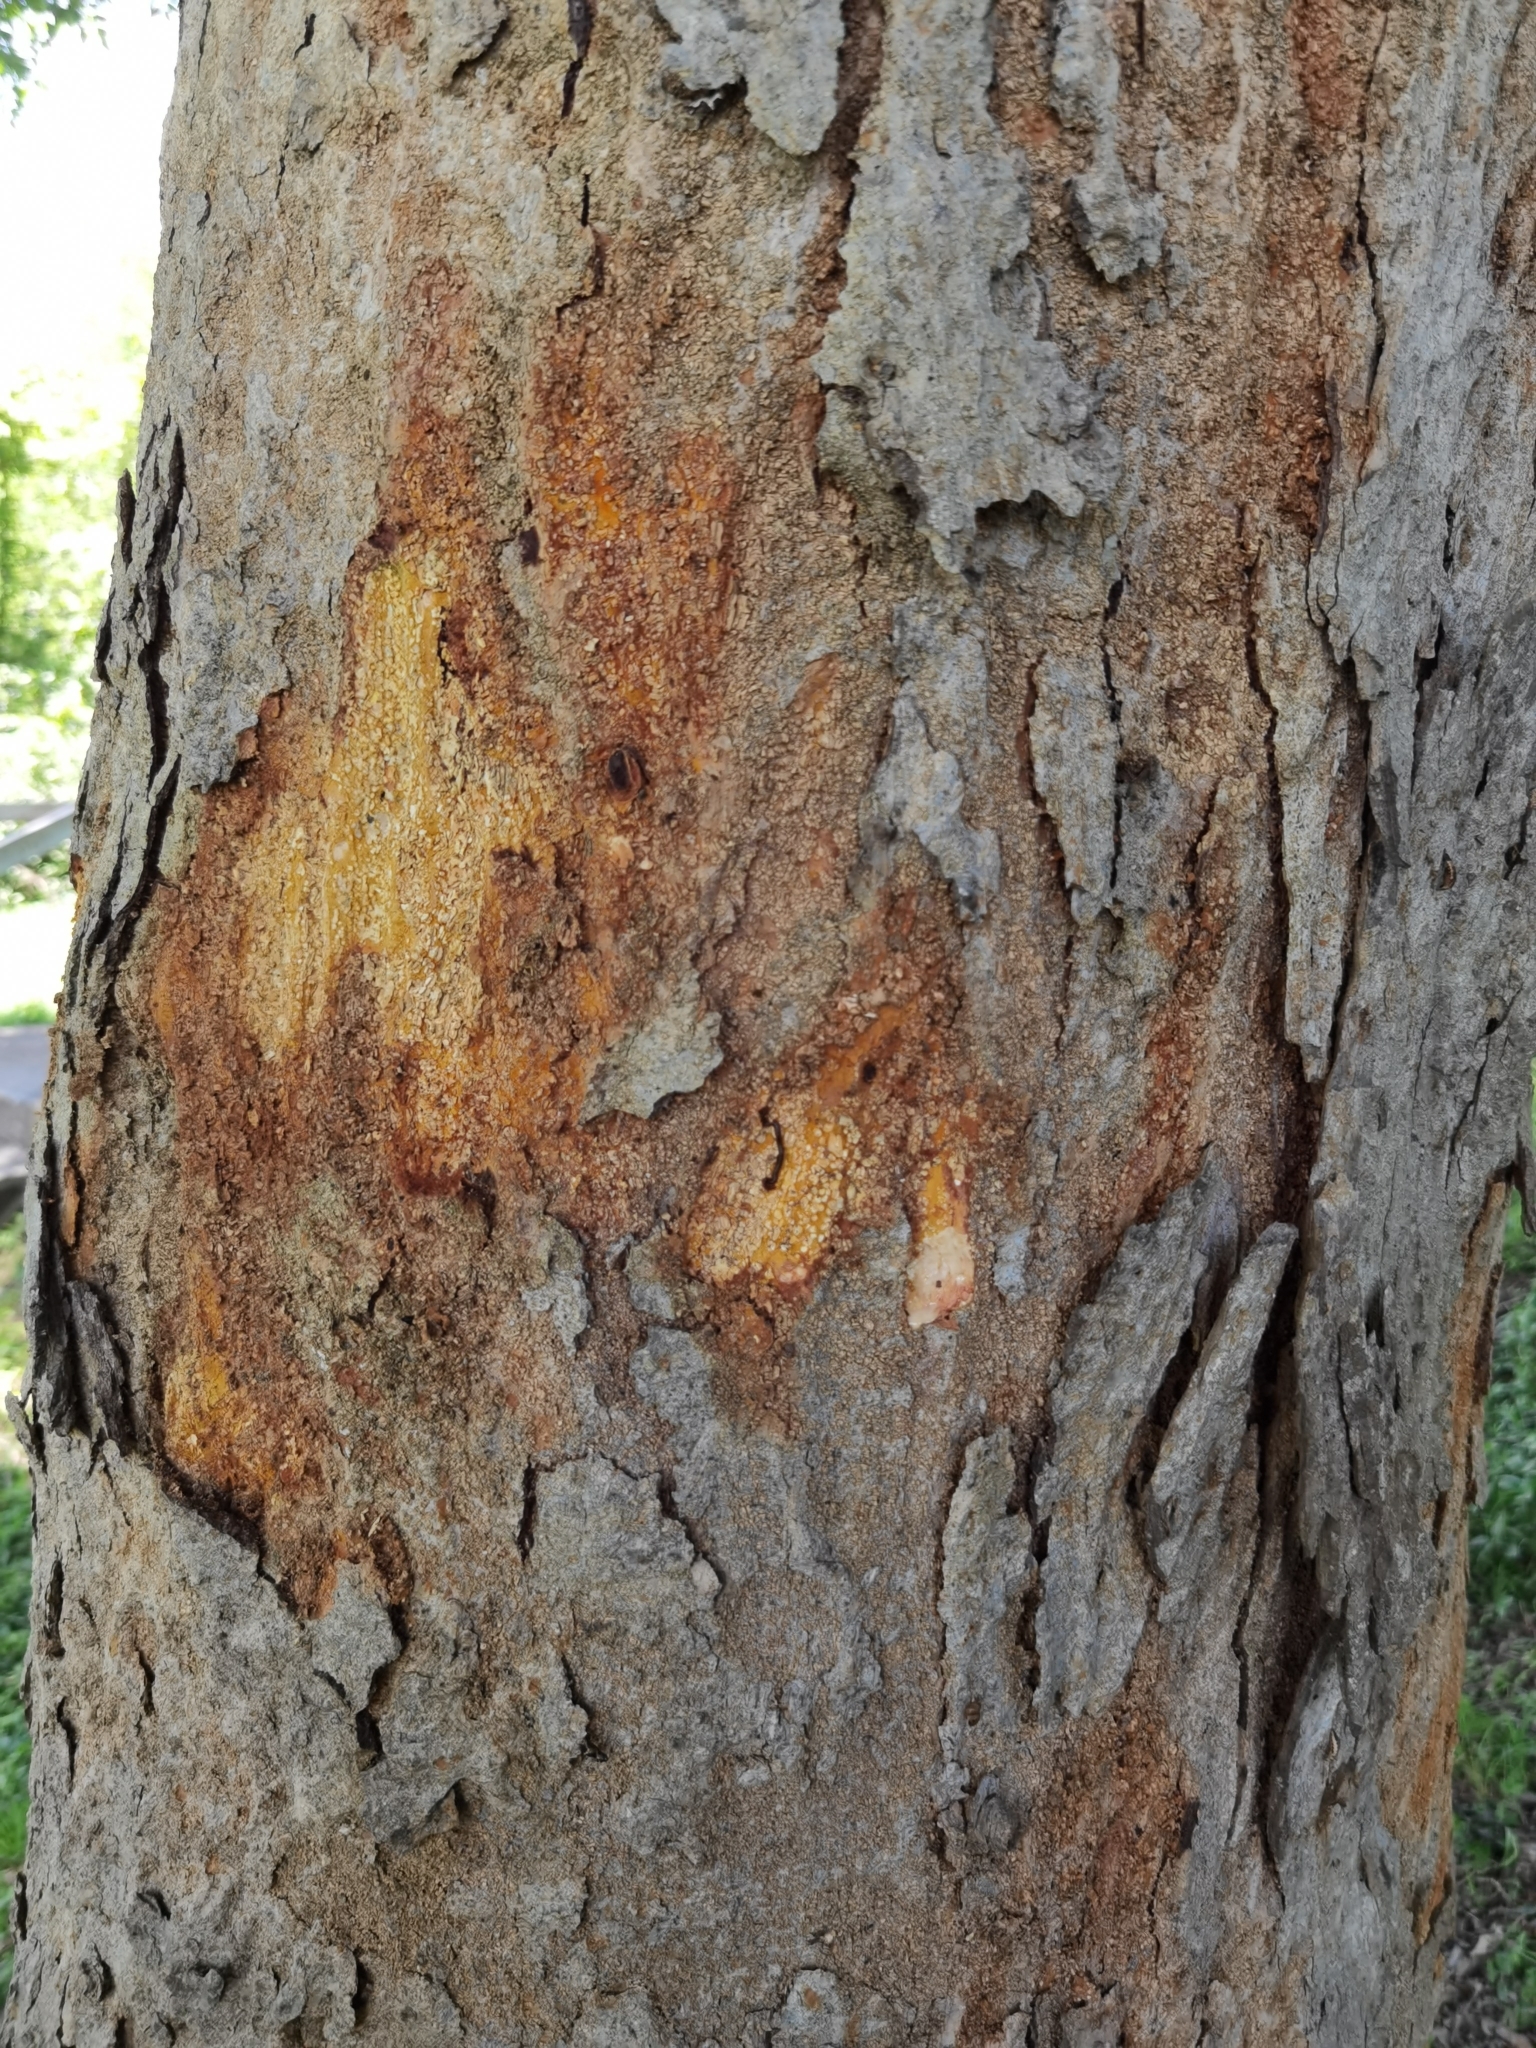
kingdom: Plantae
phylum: Tracheophyta
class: Magnoliopsida
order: Rosales
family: Moraceae
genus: Maclura
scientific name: Maclura tinctoria
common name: Old fustic
